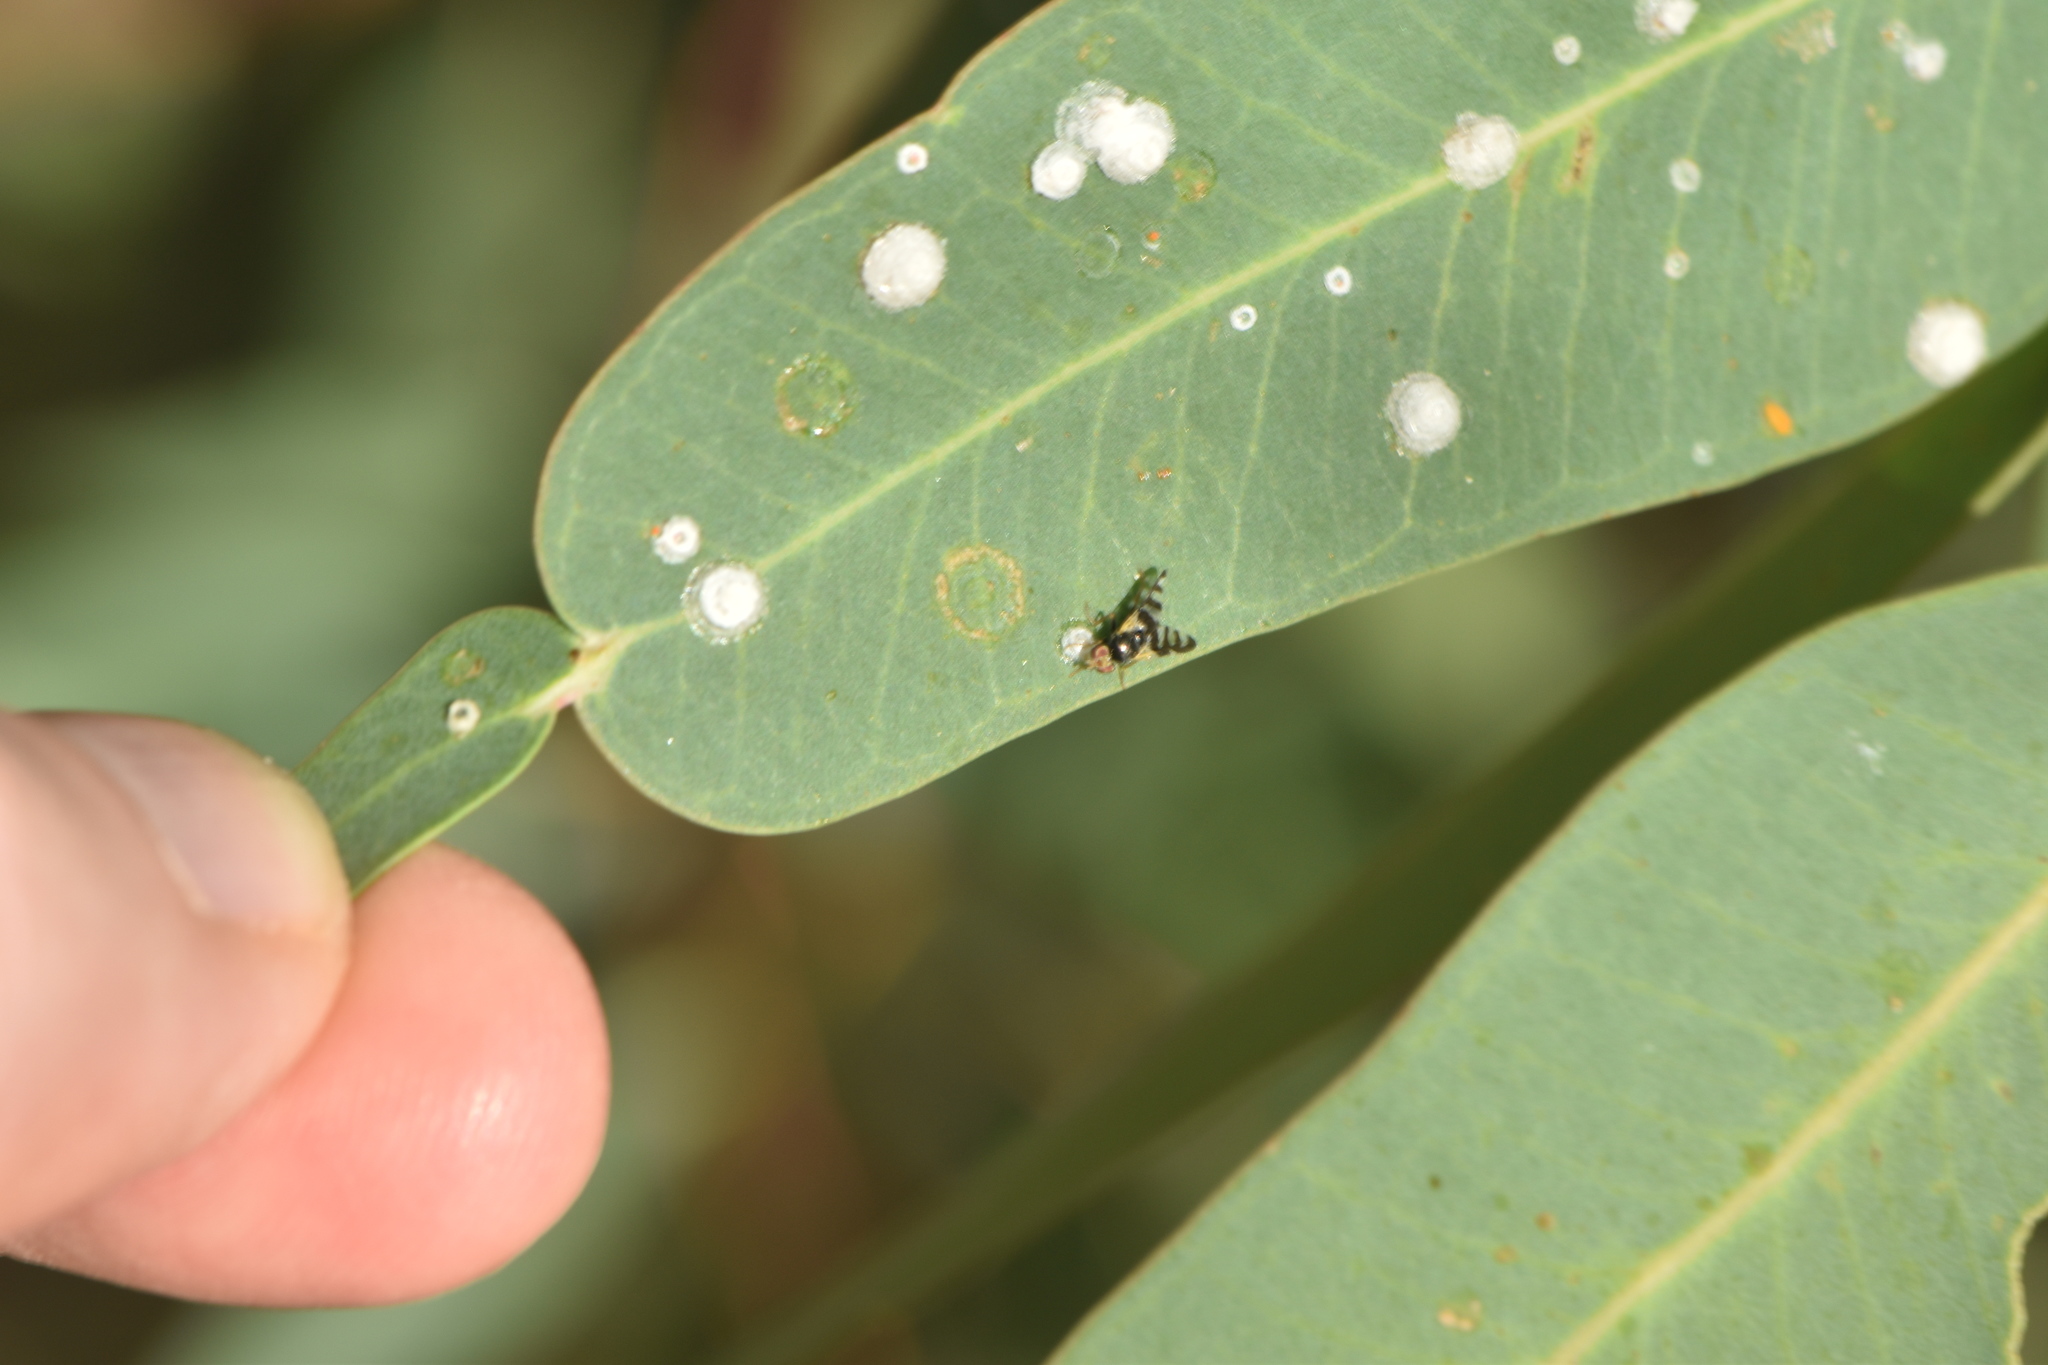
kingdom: Animalia
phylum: Arthropoda
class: Insecta
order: Hemiptera
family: Aphalaridae
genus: Glycaspis
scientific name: Glycaspis brimblecombei
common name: Red gum lerp psyllid
